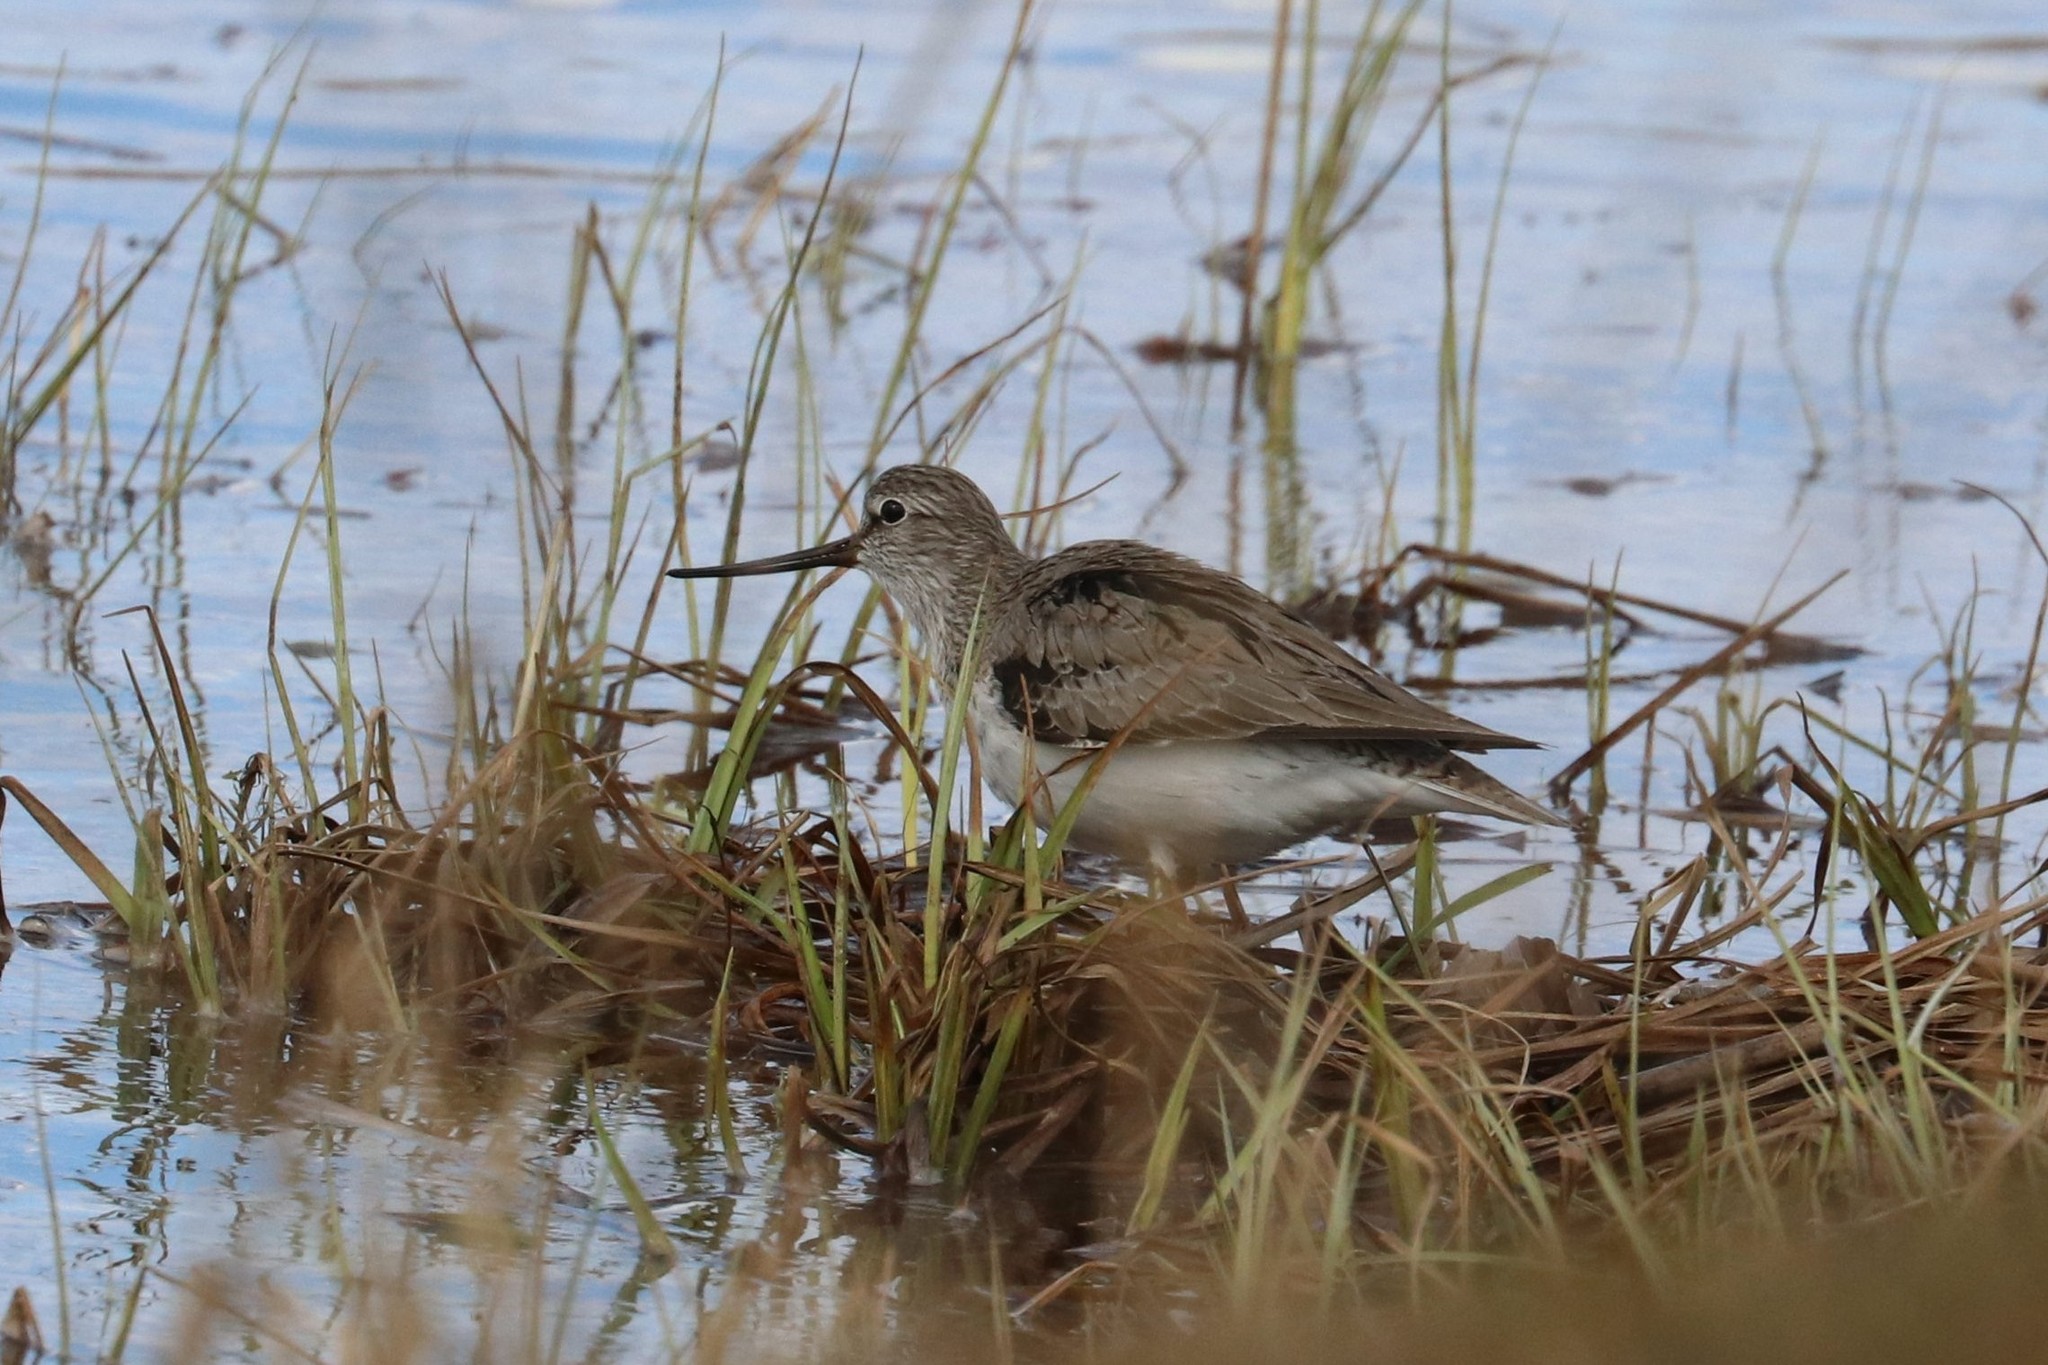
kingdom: Animalia
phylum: Chordata
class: Aves
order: Charadriiformes
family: Scolopacidae
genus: Xenus
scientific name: Xenus cinereus
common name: Terek sandpiper
